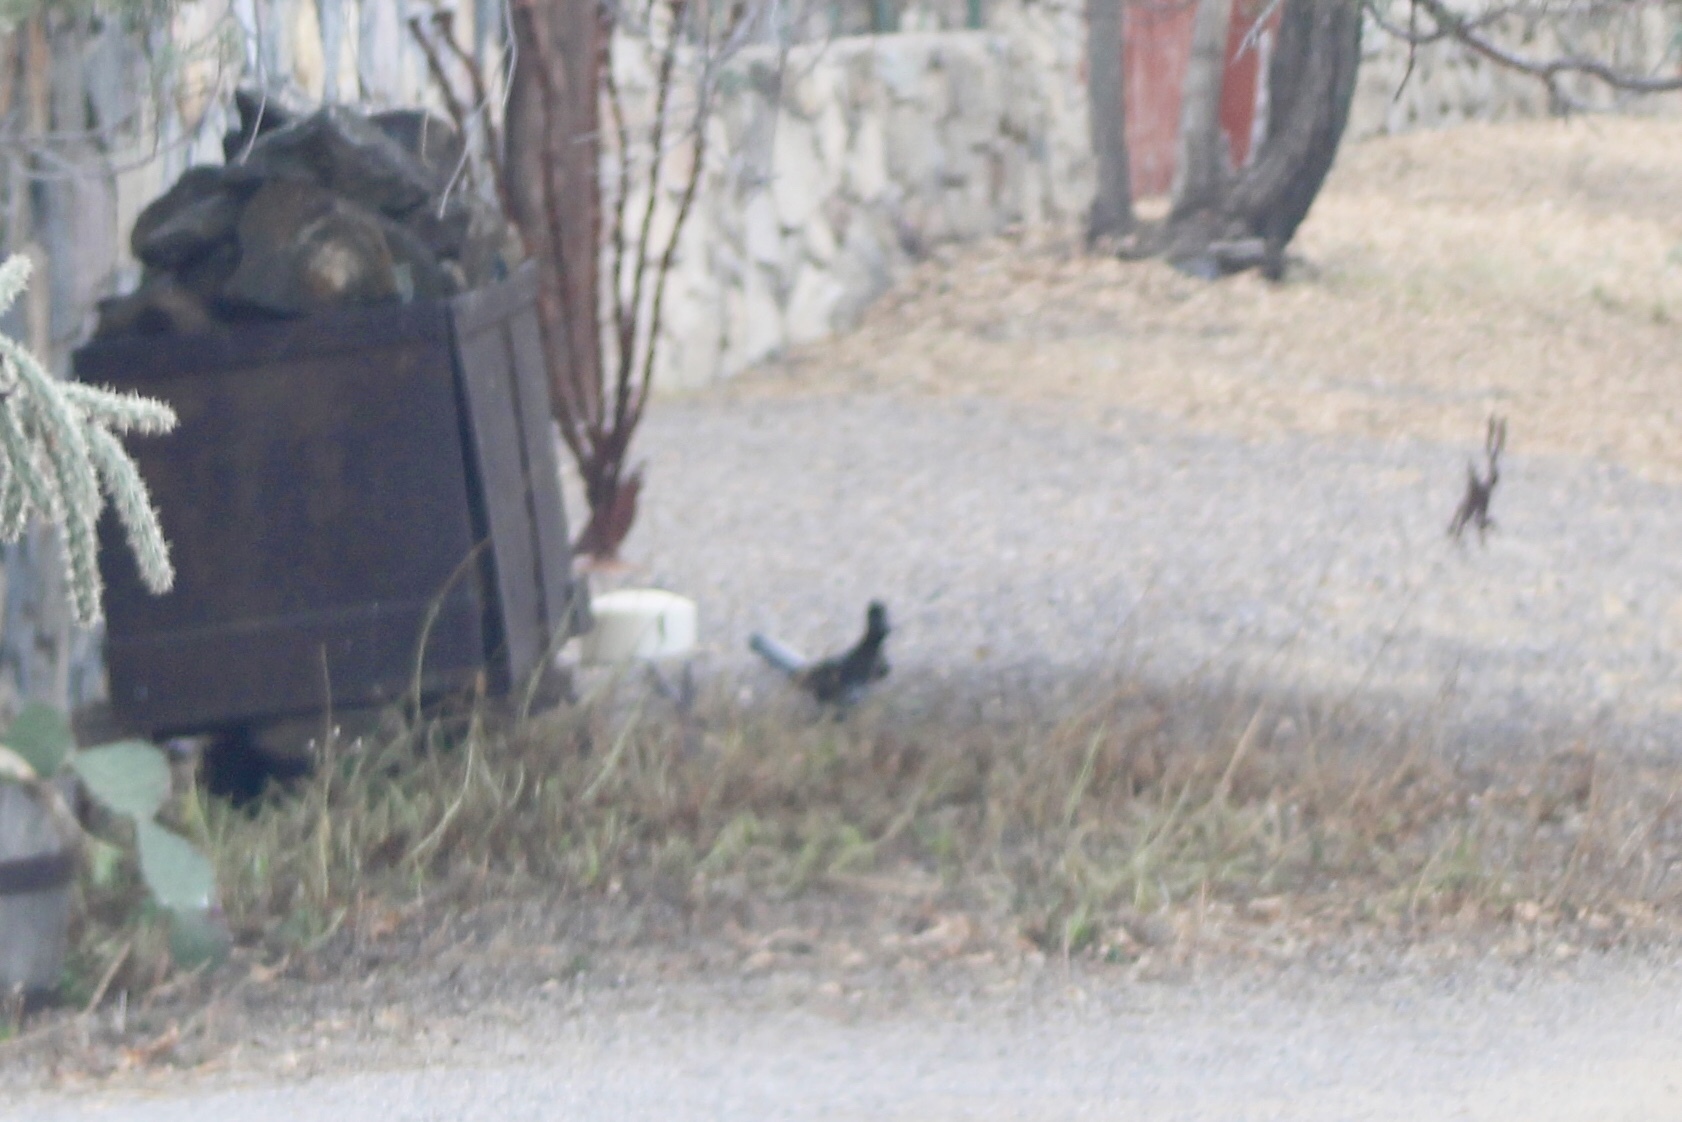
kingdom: Animalia
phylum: Chordata
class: Aves
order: Passeriformes
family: Corvidae
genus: Cyanocitta
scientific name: Cyanocitta stelleri
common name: Steller's jay
